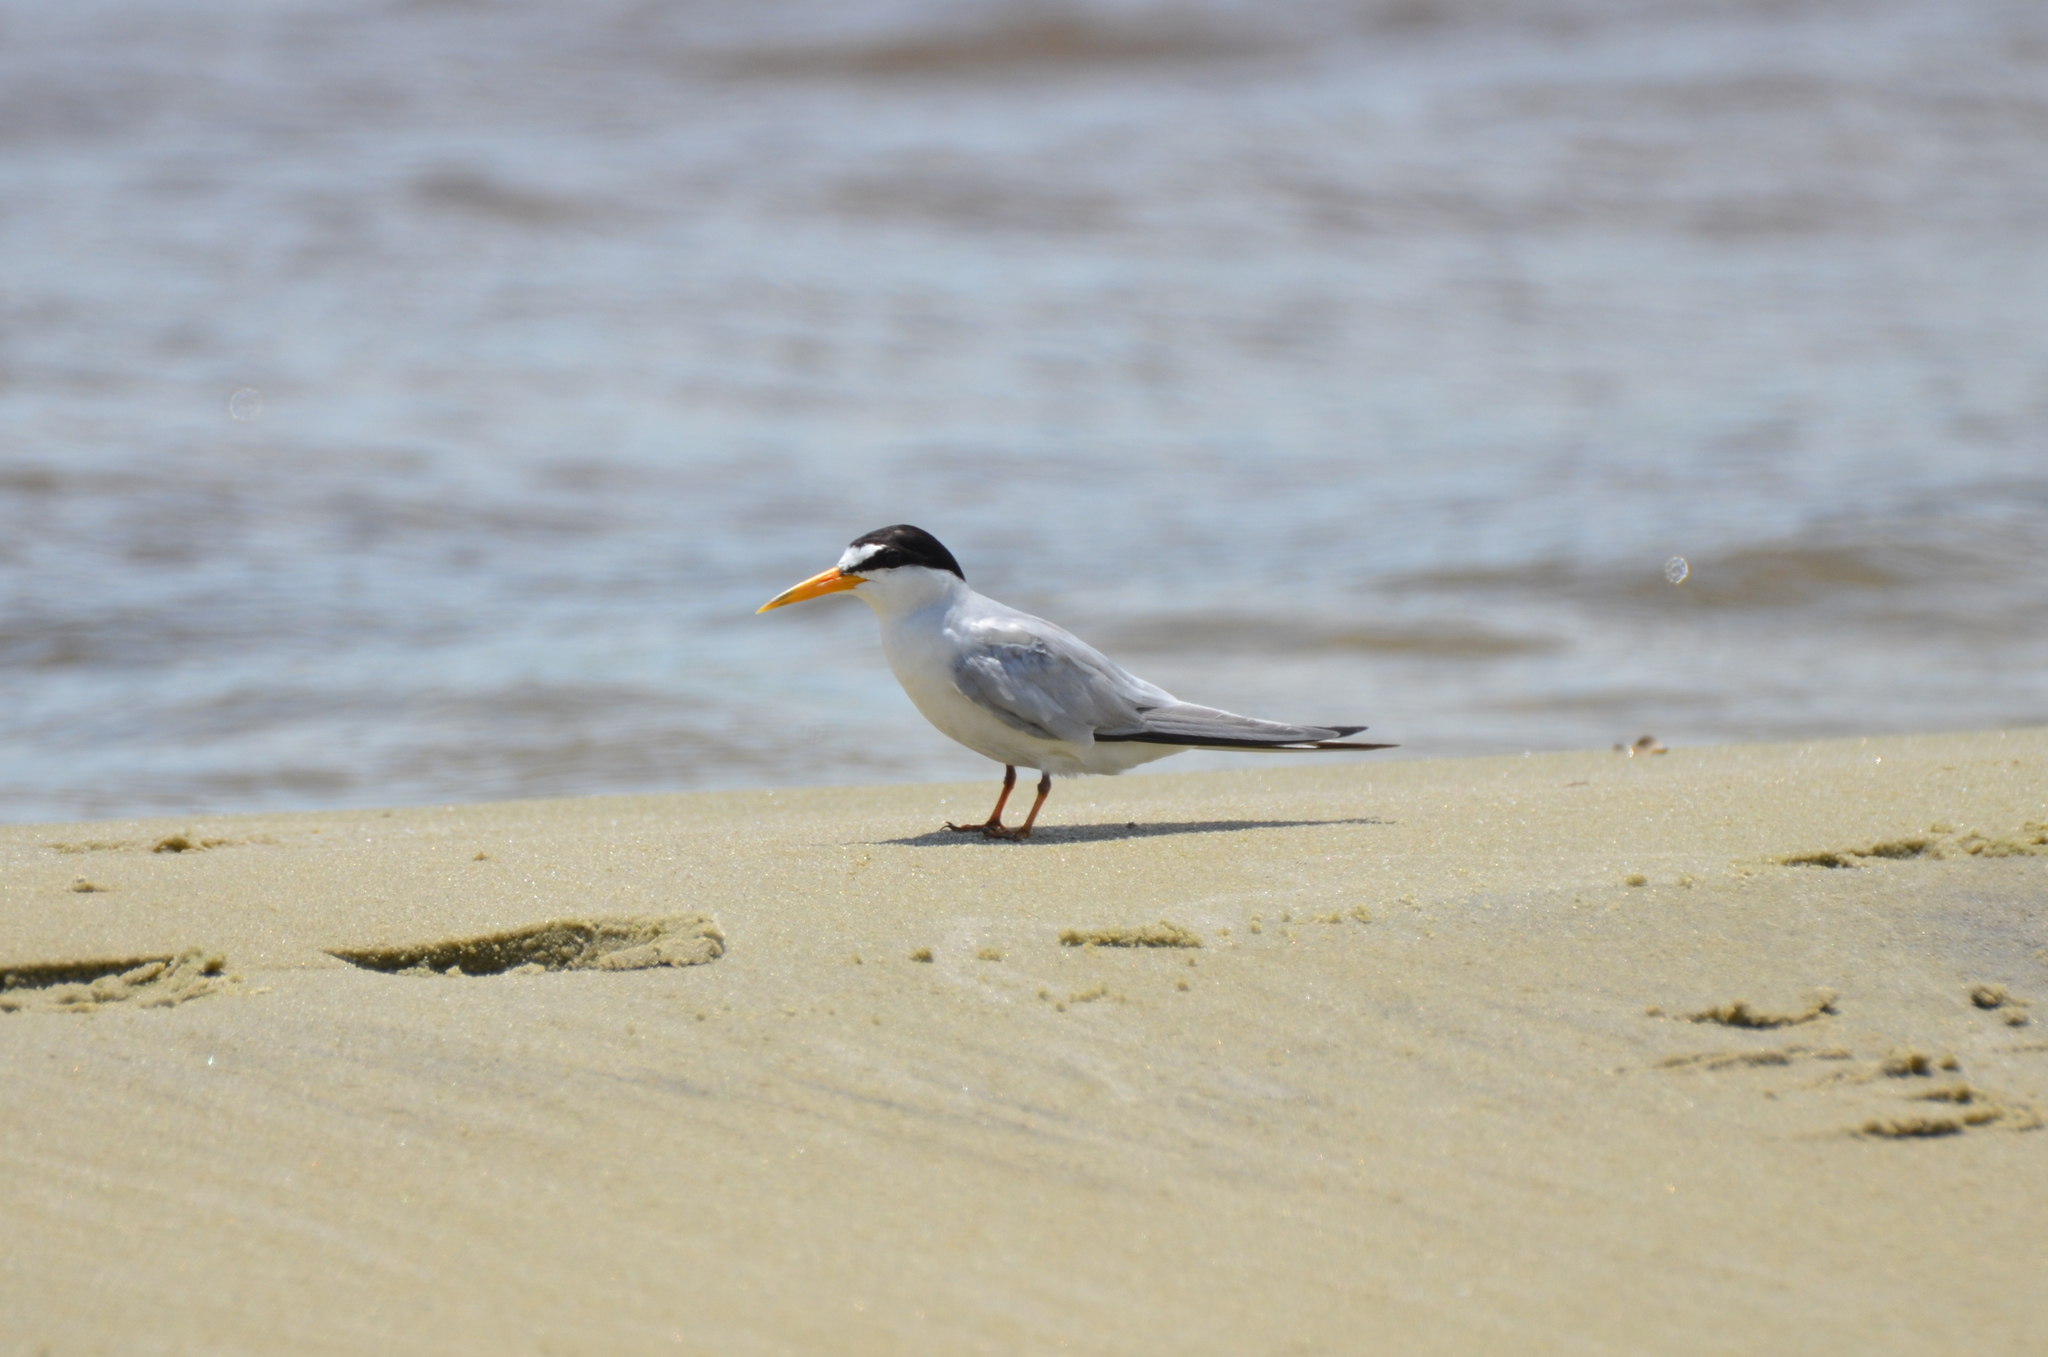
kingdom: Animalia
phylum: Chordata
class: Aves
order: Charadriiformes
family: Laridae
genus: Sternula
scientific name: Sternula antillarum
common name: Least tern
